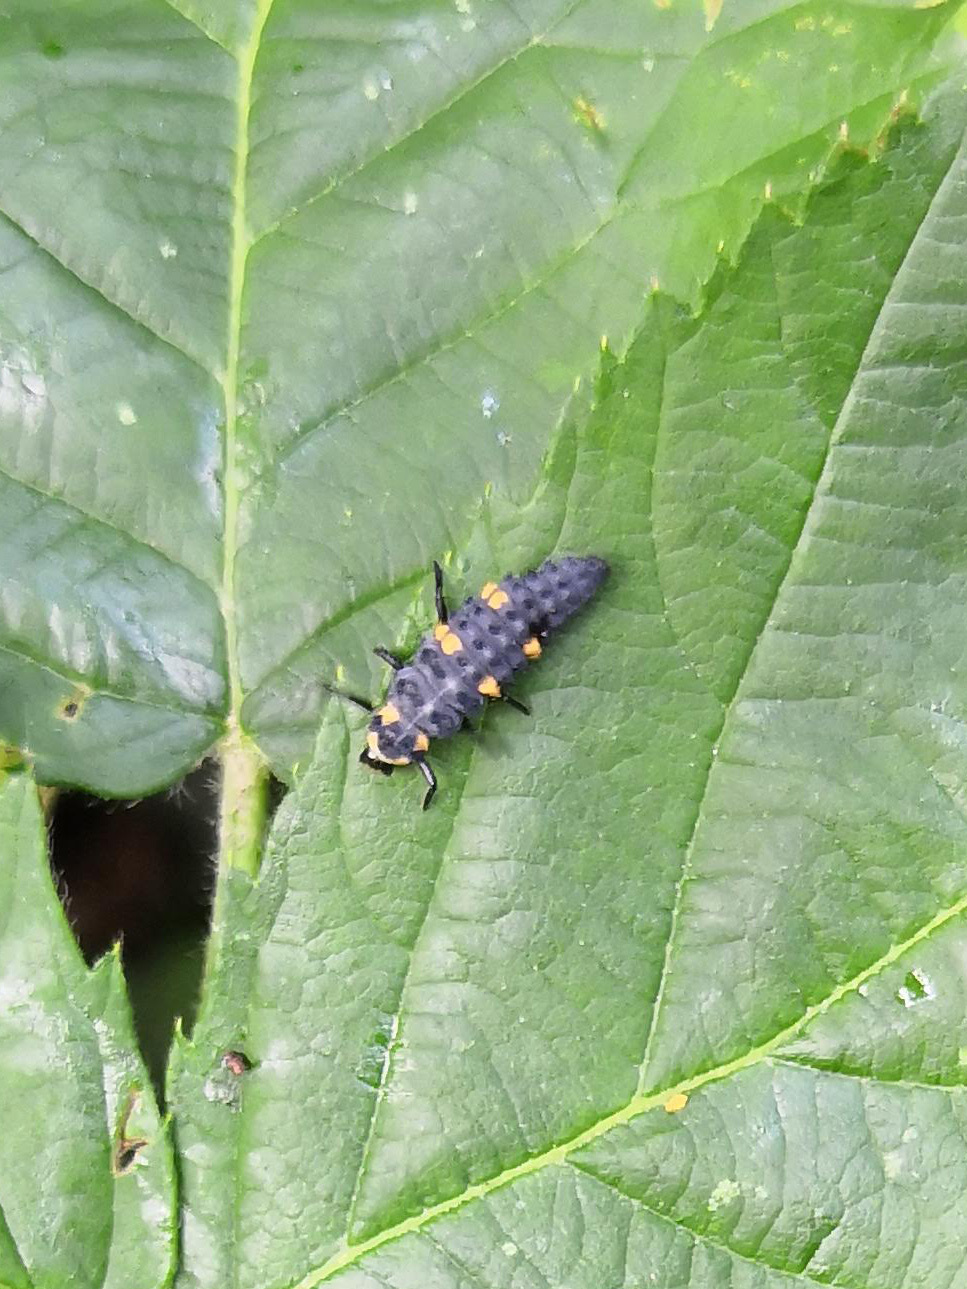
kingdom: Animalia
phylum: Arthropoda
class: Insecta
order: Coleoptera
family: Coccinellidae
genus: Coccinella
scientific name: Coccinella septempunctata
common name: Sevenspotted lady beetle
